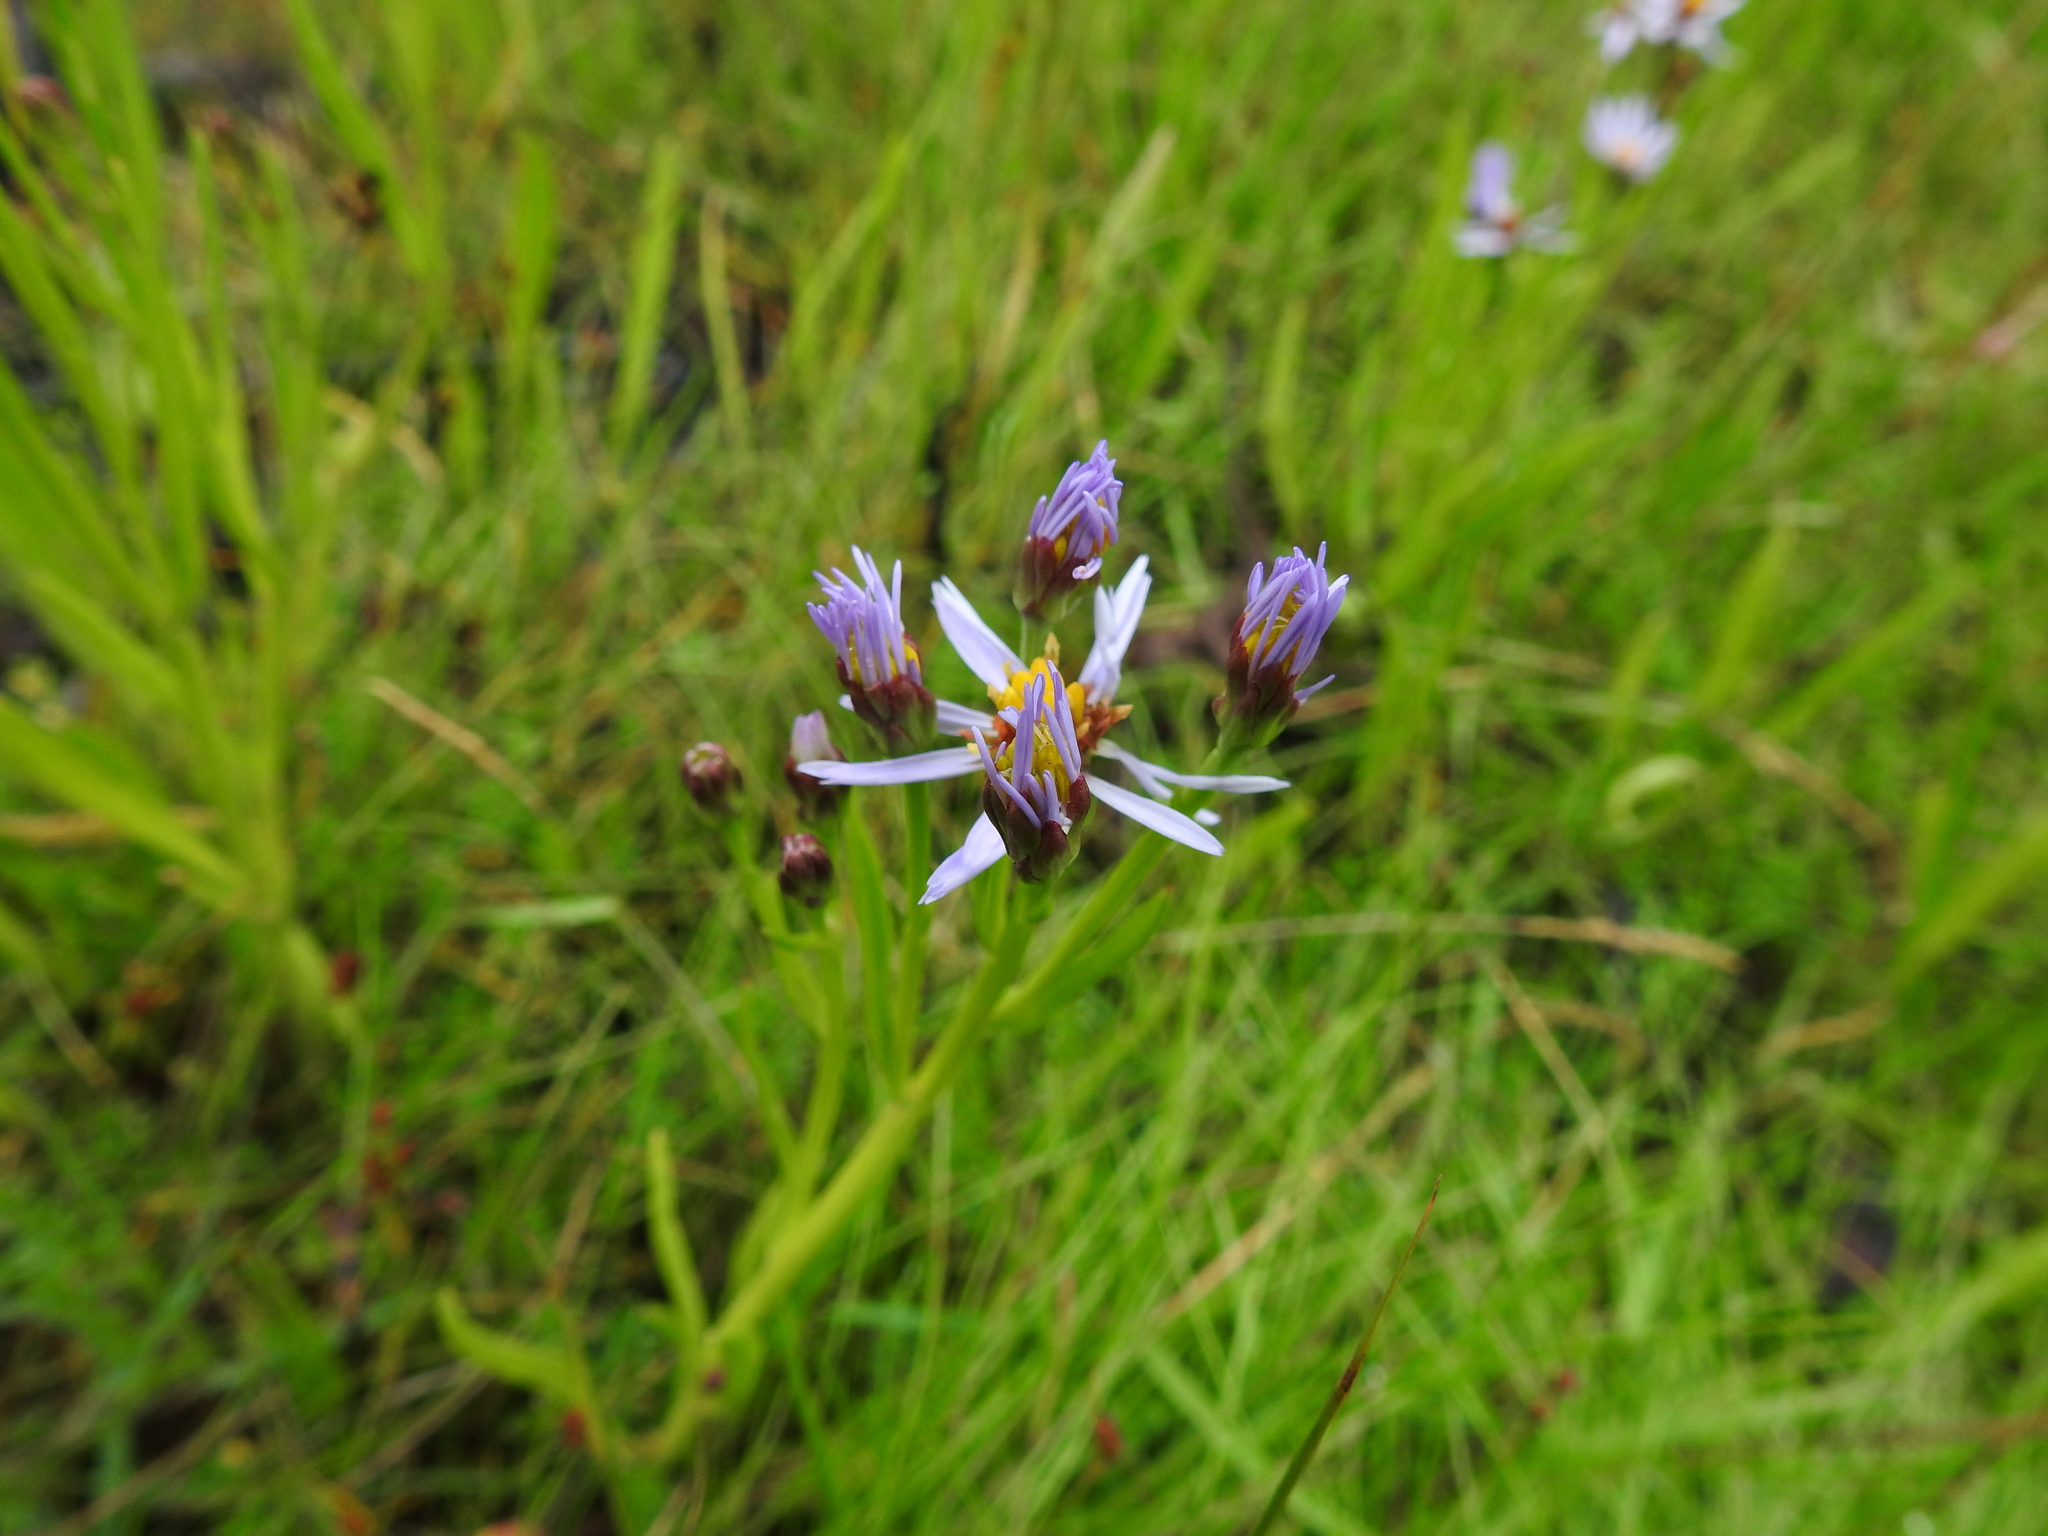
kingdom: Plantae
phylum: Tracheophyta
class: Magnoliopsida
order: Asterales
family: Asteraceae
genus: Tripolium
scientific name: Tripolium pannonicum
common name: Sea aster
